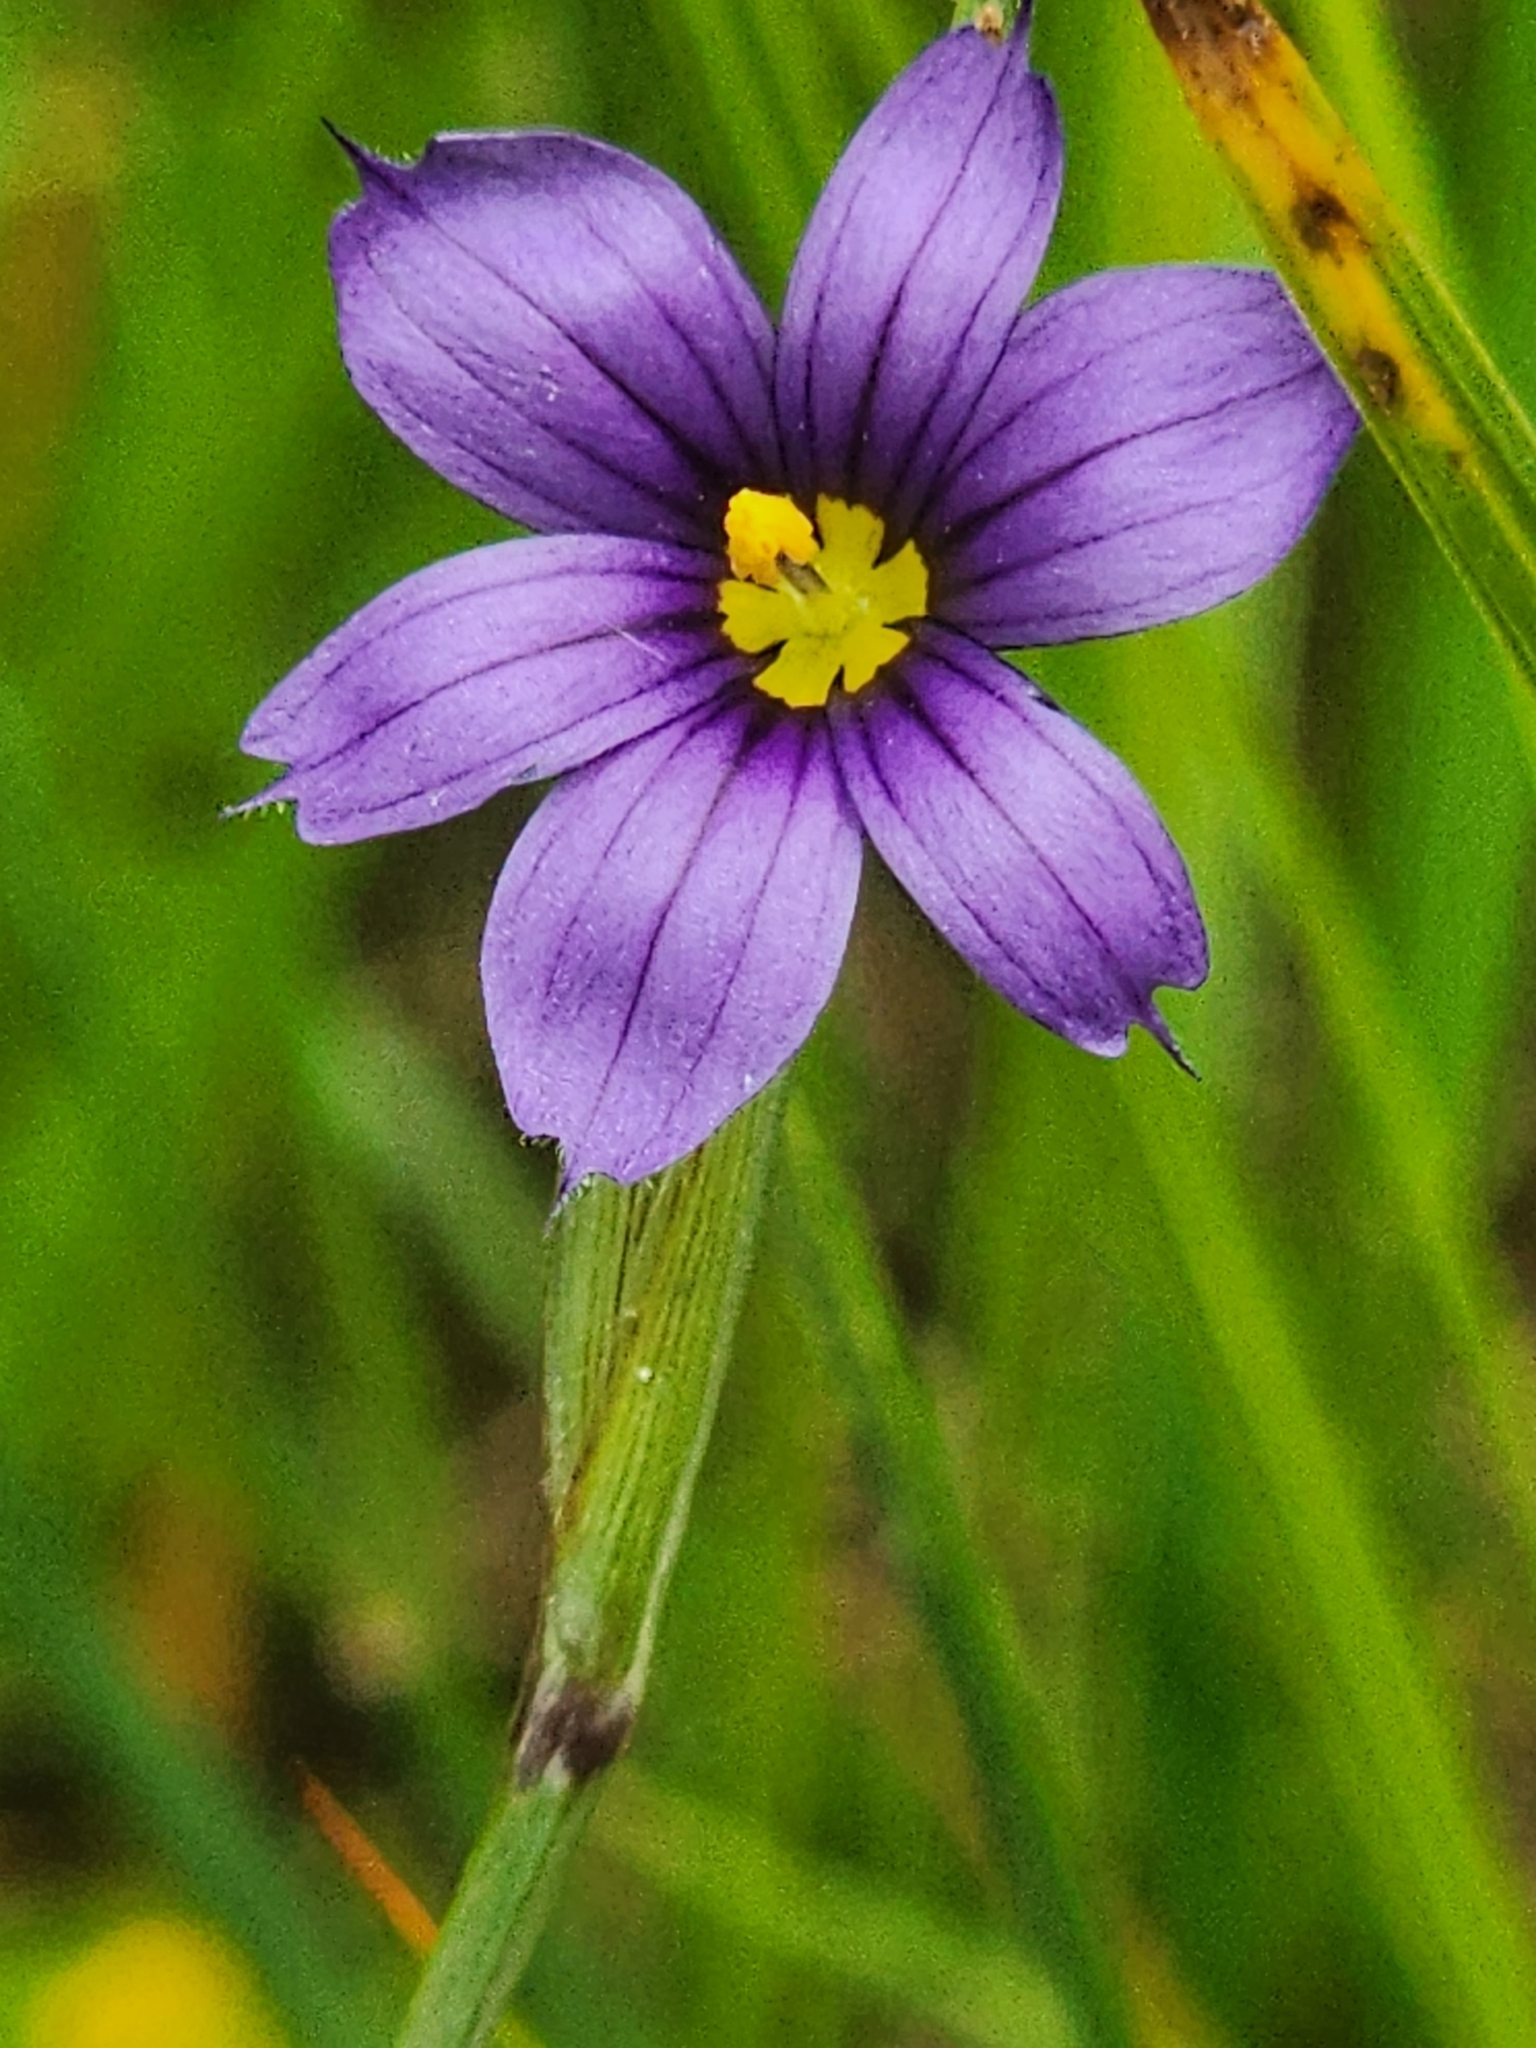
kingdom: Plantae
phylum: Tracheophyta
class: Liliopsida
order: Asparagales
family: Iridaceae
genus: Sisyrinchium
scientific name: Sisyrinchium montanum
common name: American blue-eyed-grass
